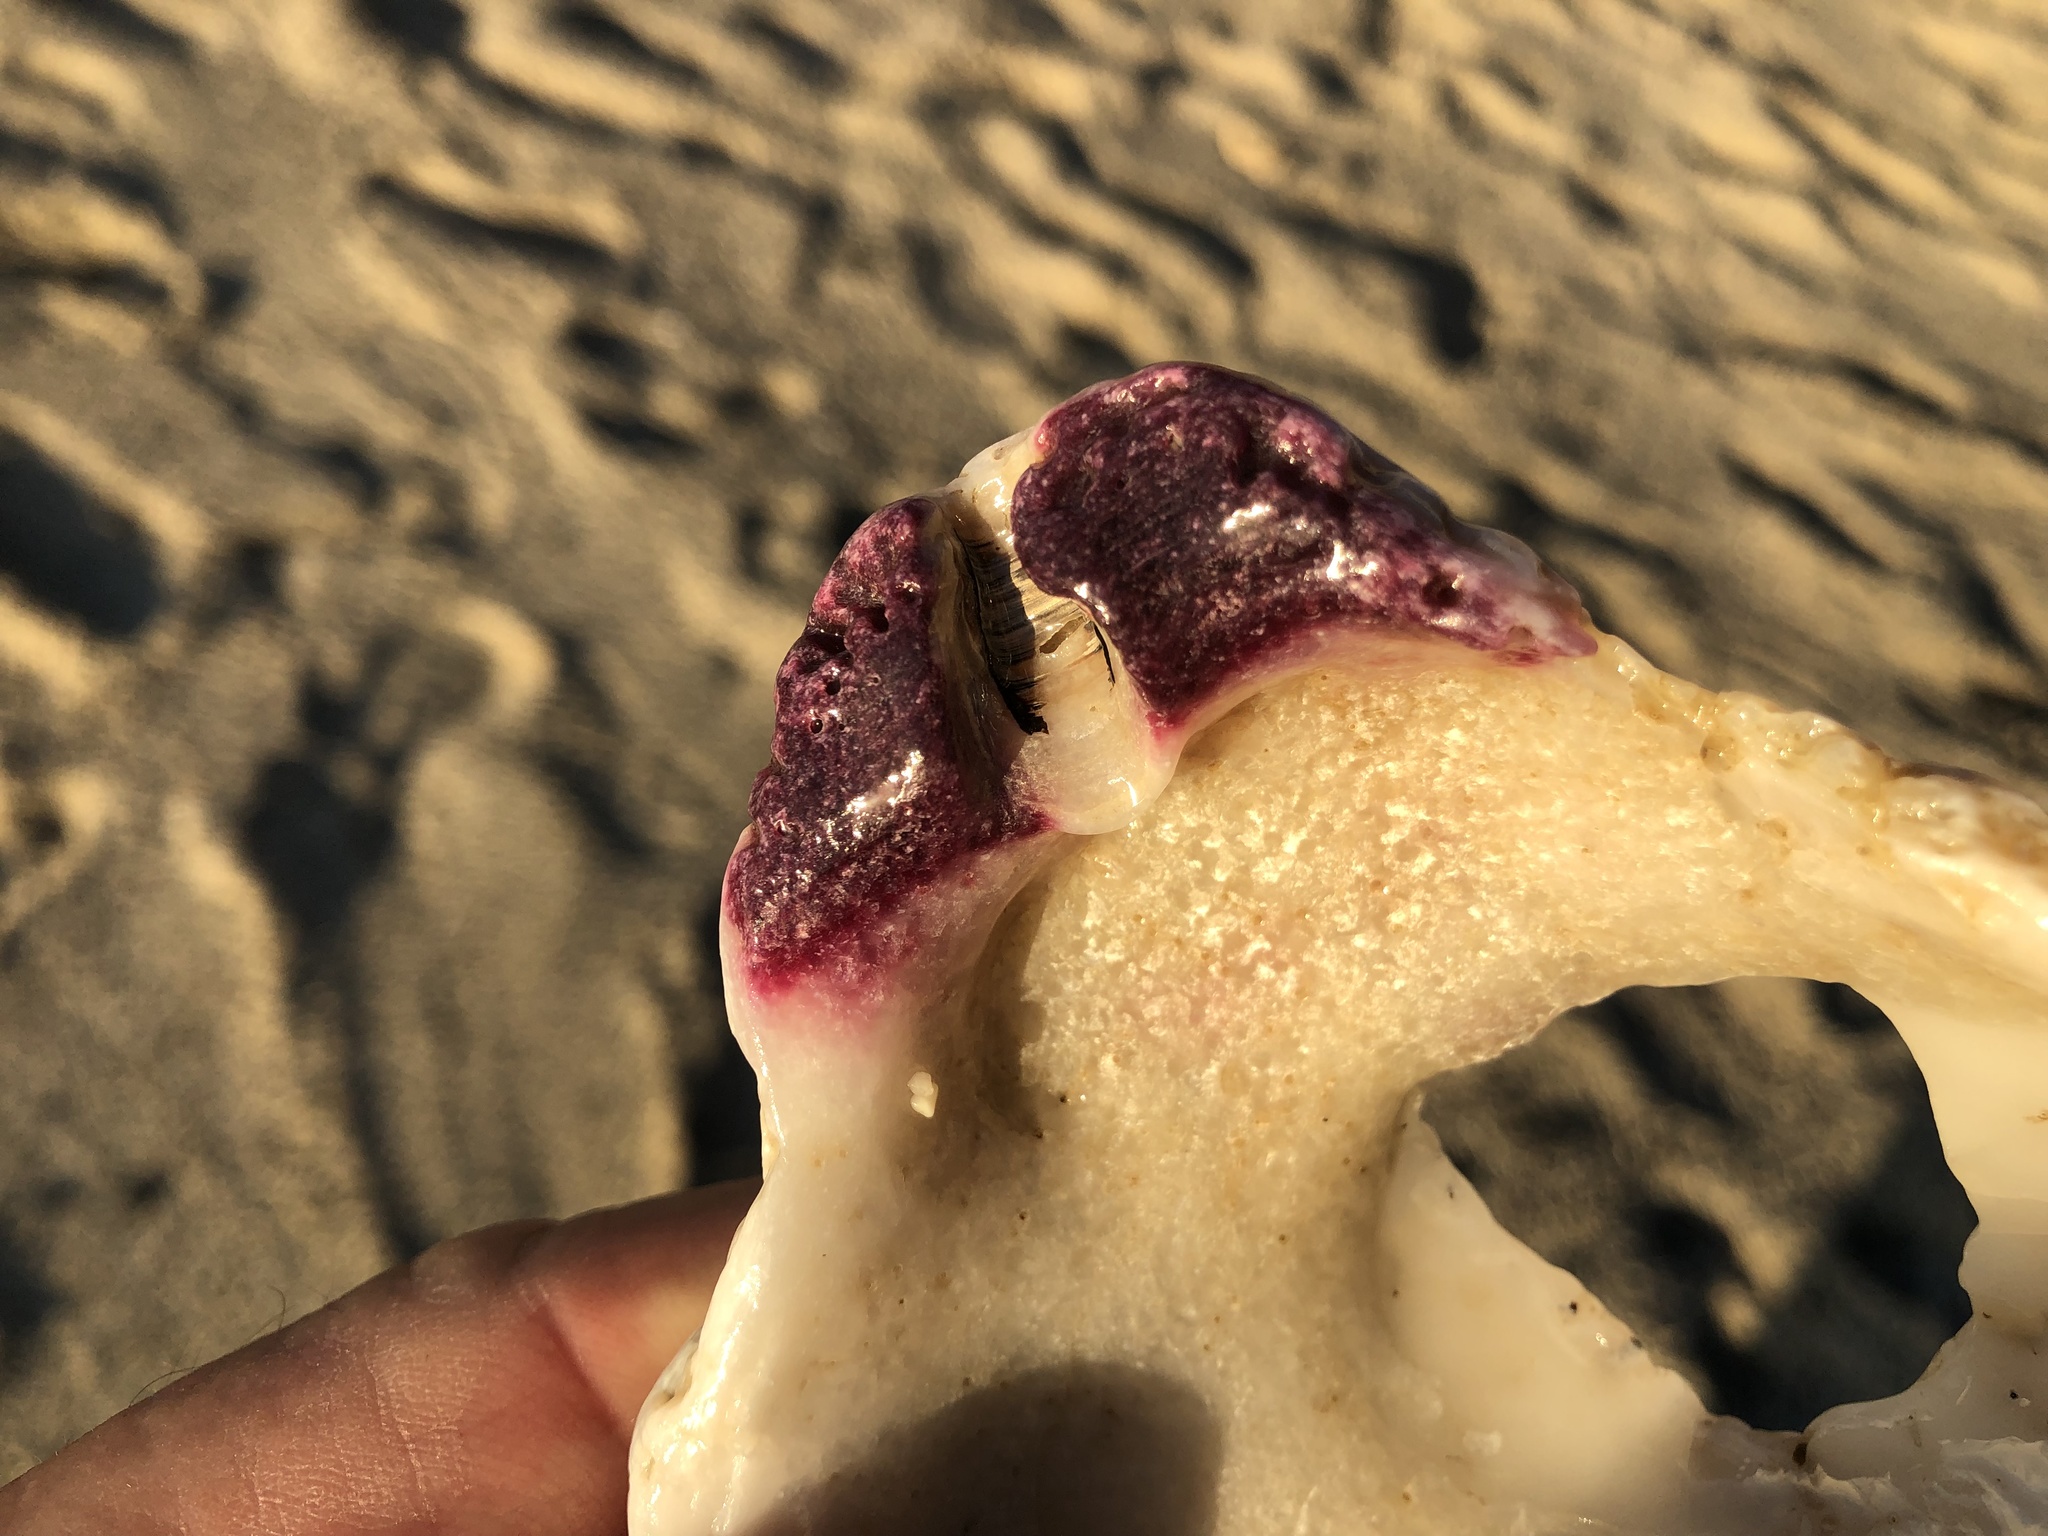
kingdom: Animalia
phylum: Mollusca
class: Bivalvia
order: Pectinida
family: Pectinidae
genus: Crassadoma
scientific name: Crassadoma gigantea
